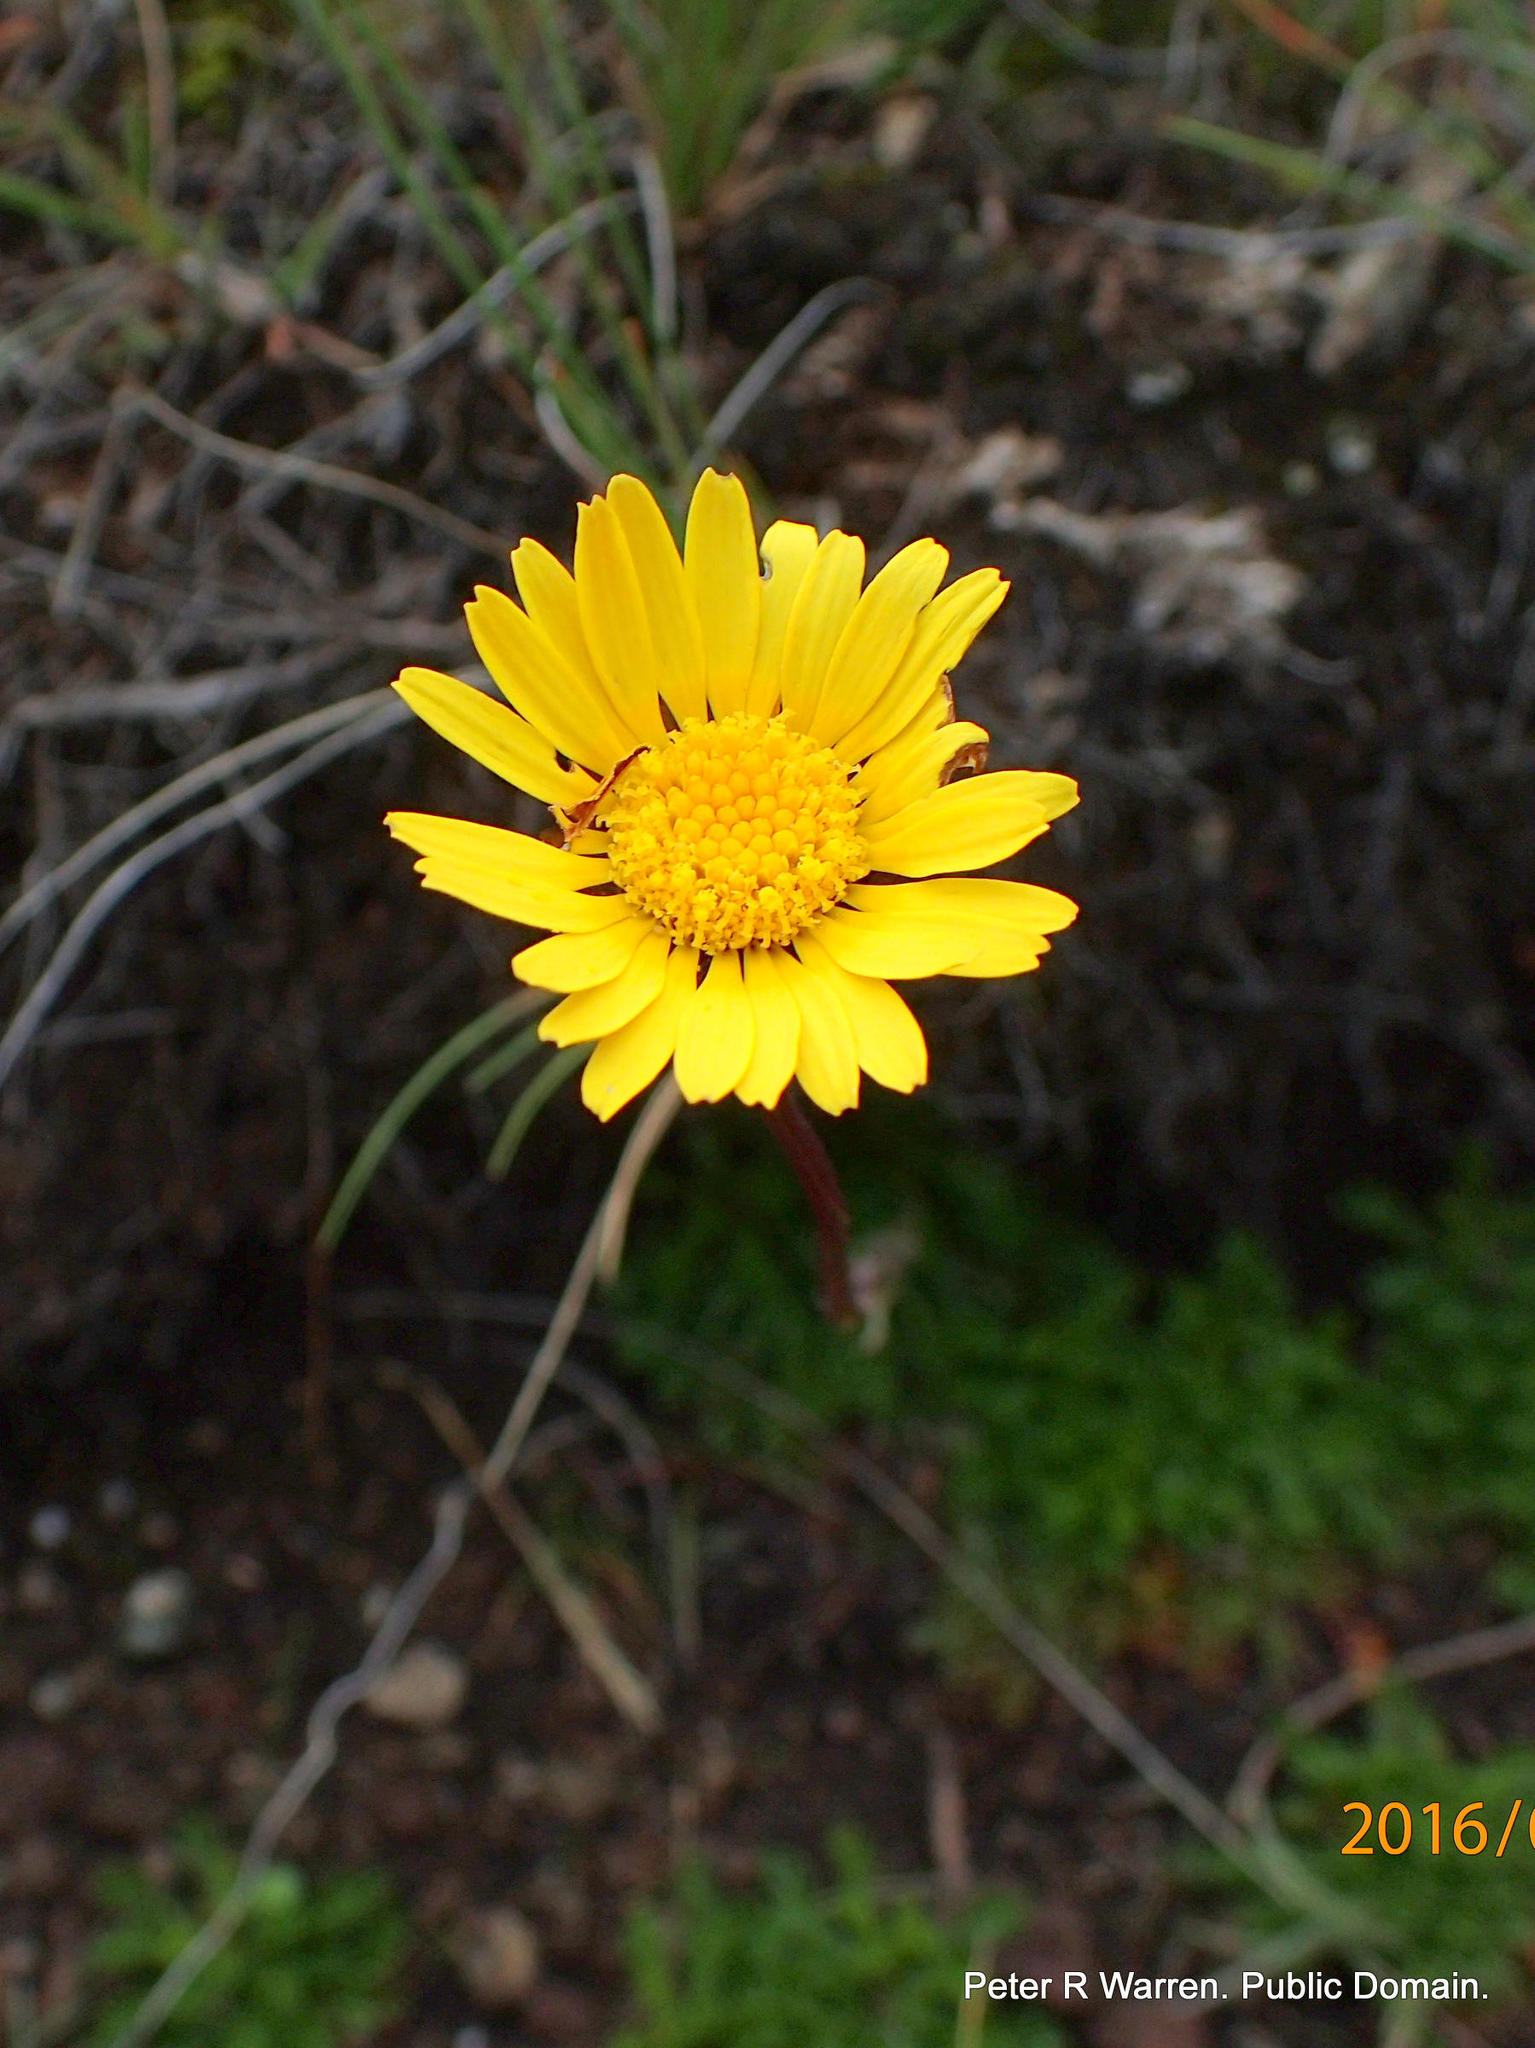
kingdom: Plantae
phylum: Tracheophyta
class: Magnoliopsida
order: Asterales
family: Asteraceae
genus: Ursinia
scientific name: Ursinia alpina
